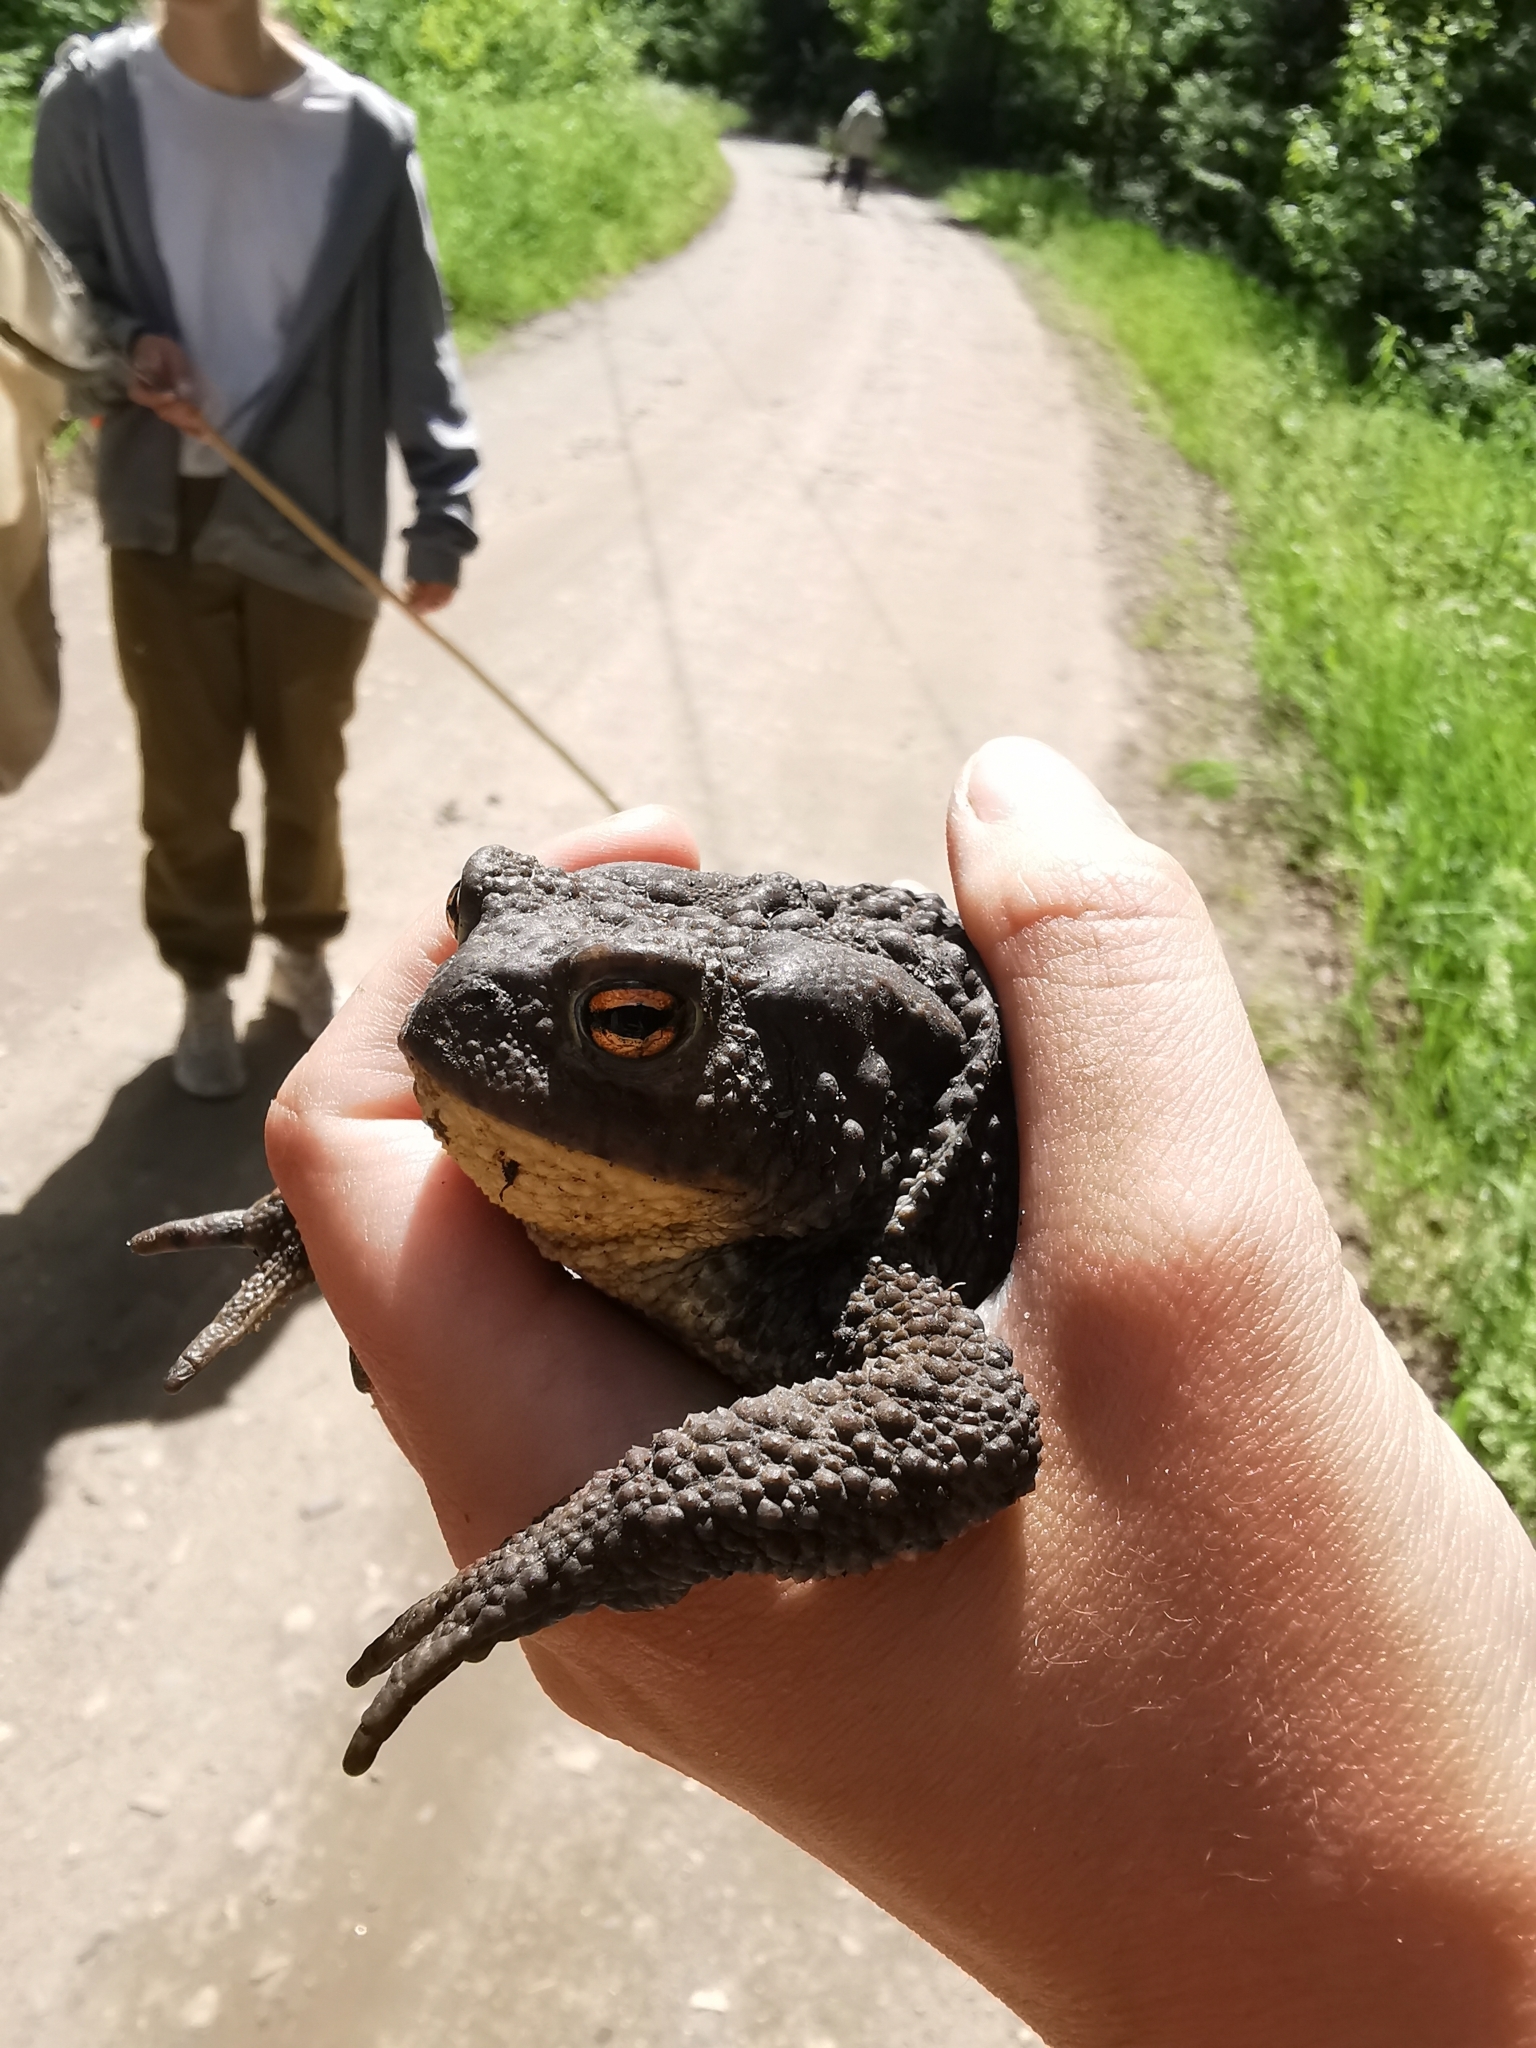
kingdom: Animalia
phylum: Chordata
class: Amphibia
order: Anura
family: Bufonidae
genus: Bufo
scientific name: Bufo bufo
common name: Common toad
